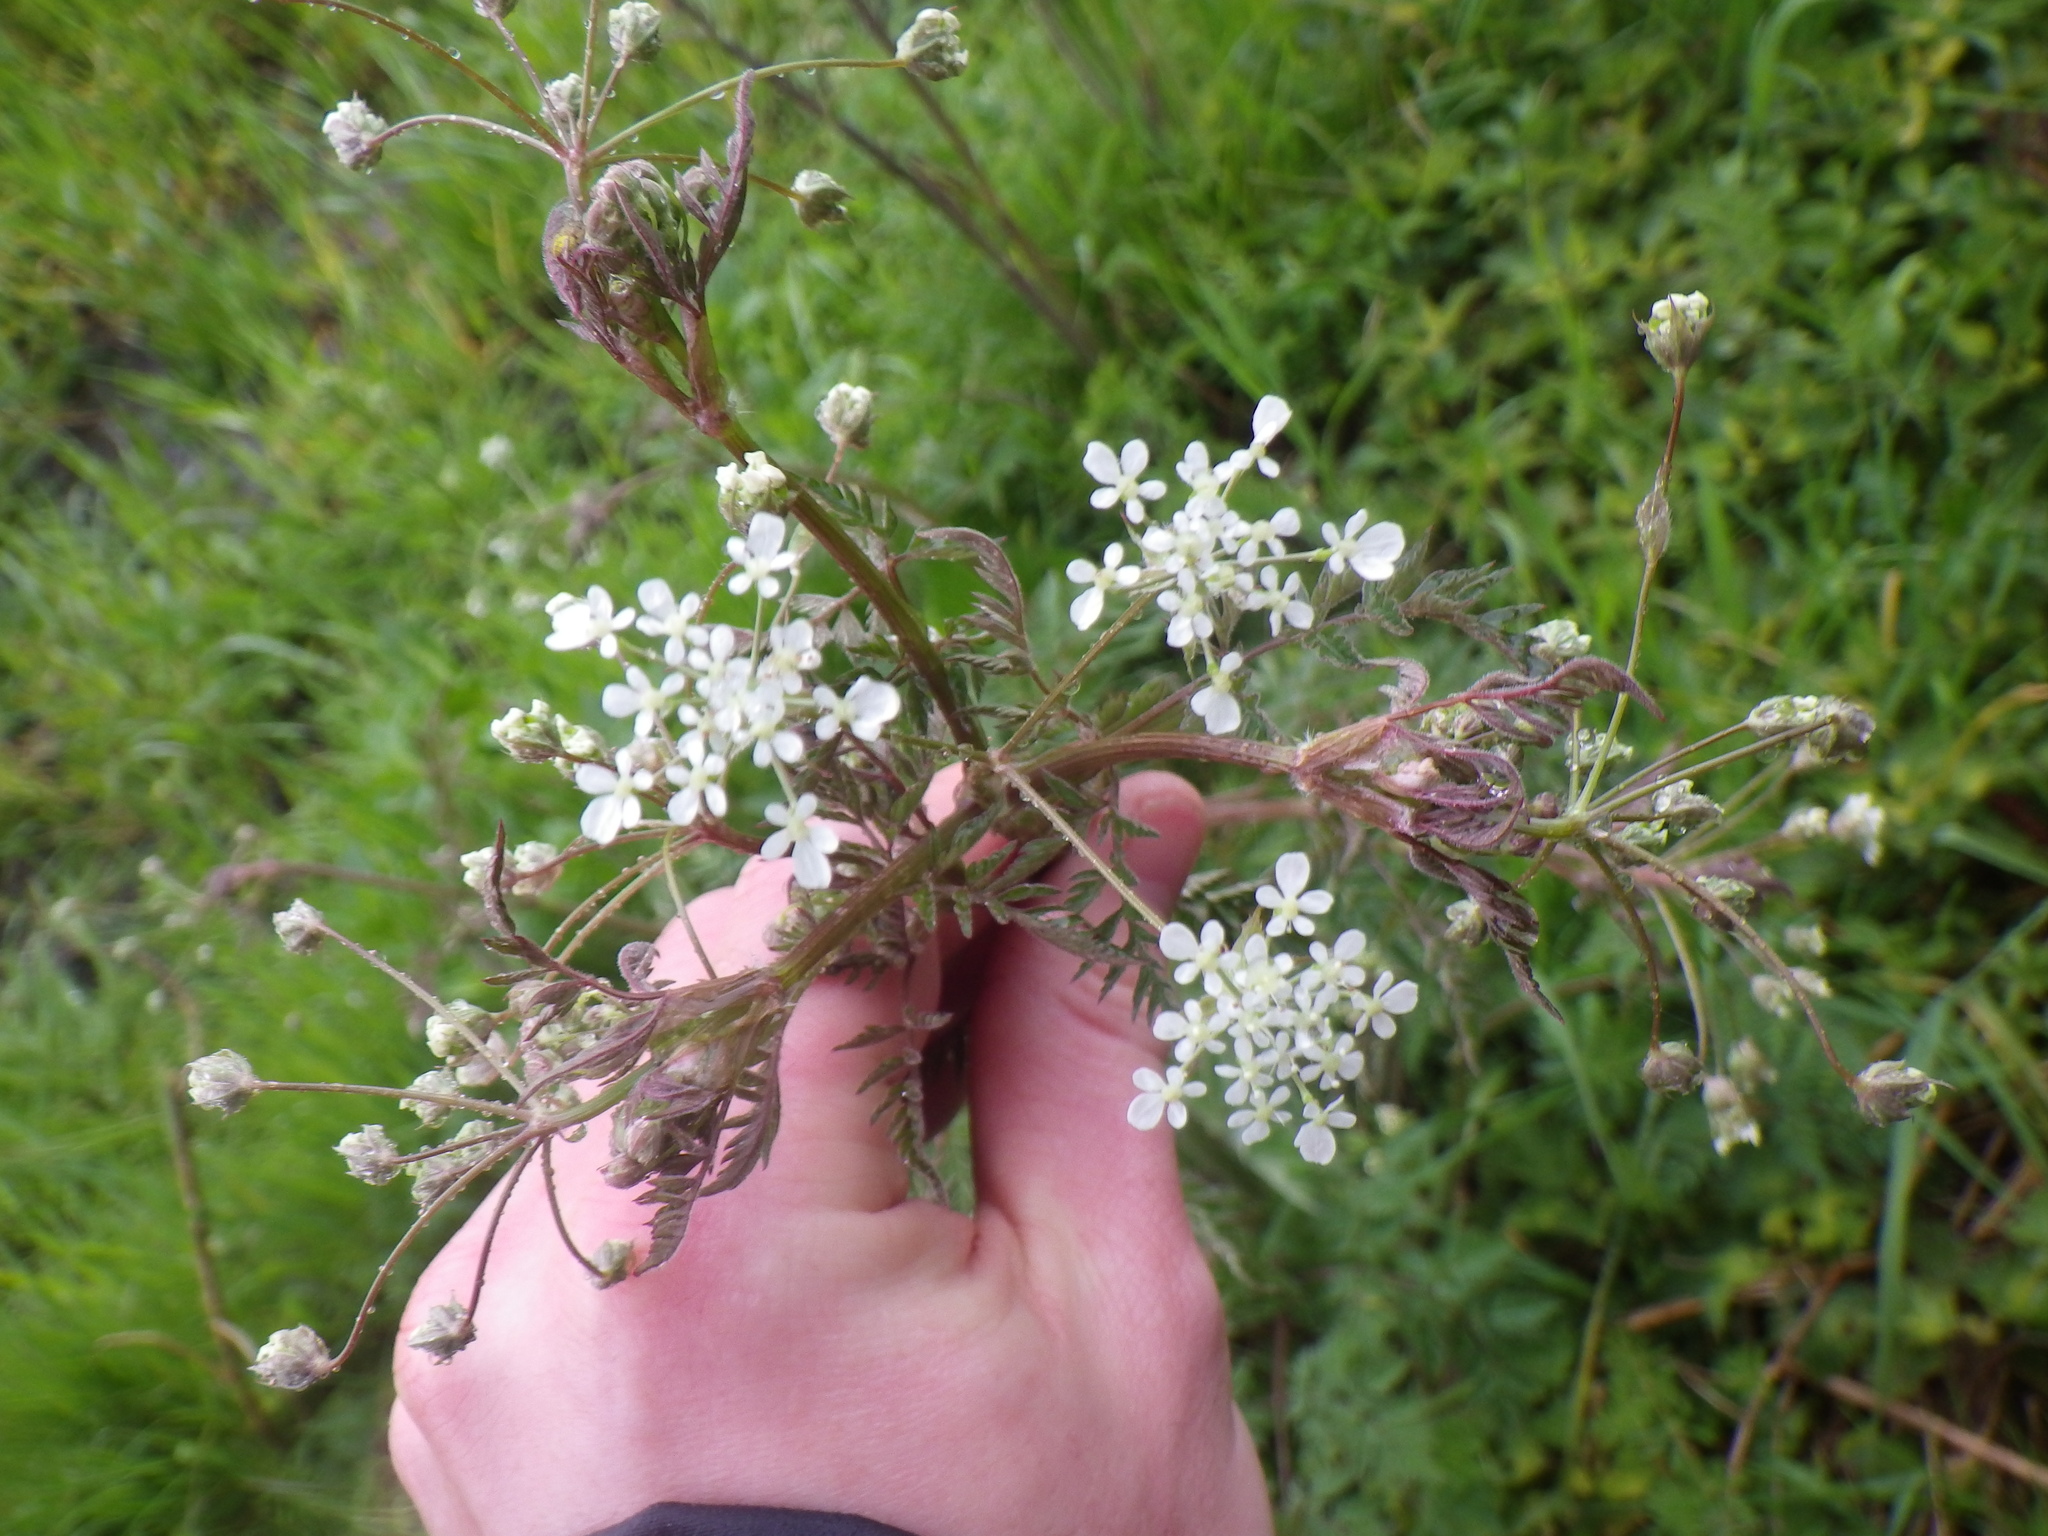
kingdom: Plantae
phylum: Tracheophyta
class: Magnoliopsida
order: Apiales
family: Apiaceae
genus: Anthriscus
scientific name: Anthriscus sylvestris
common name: Cow parsley
